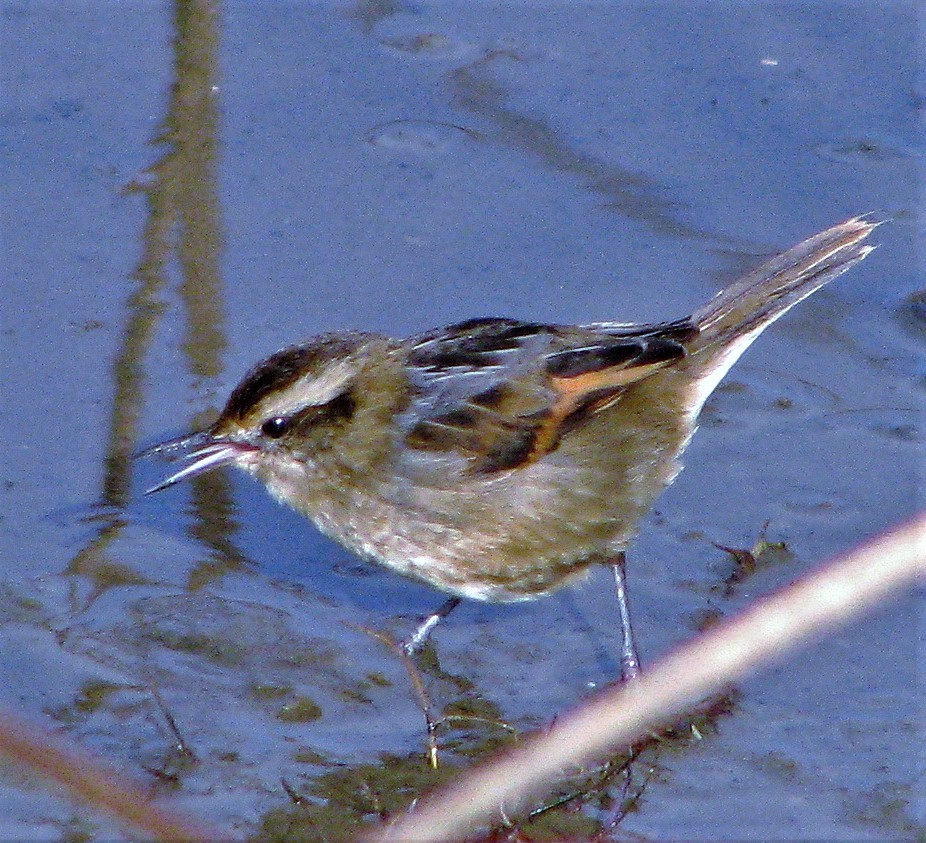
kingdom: Animalia
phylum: Chordata
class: Aves
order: Passeriformes
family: Furnariidae
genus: Phleocryptes
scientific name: Phleocryptes melanops
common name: Wren-like rushbird
